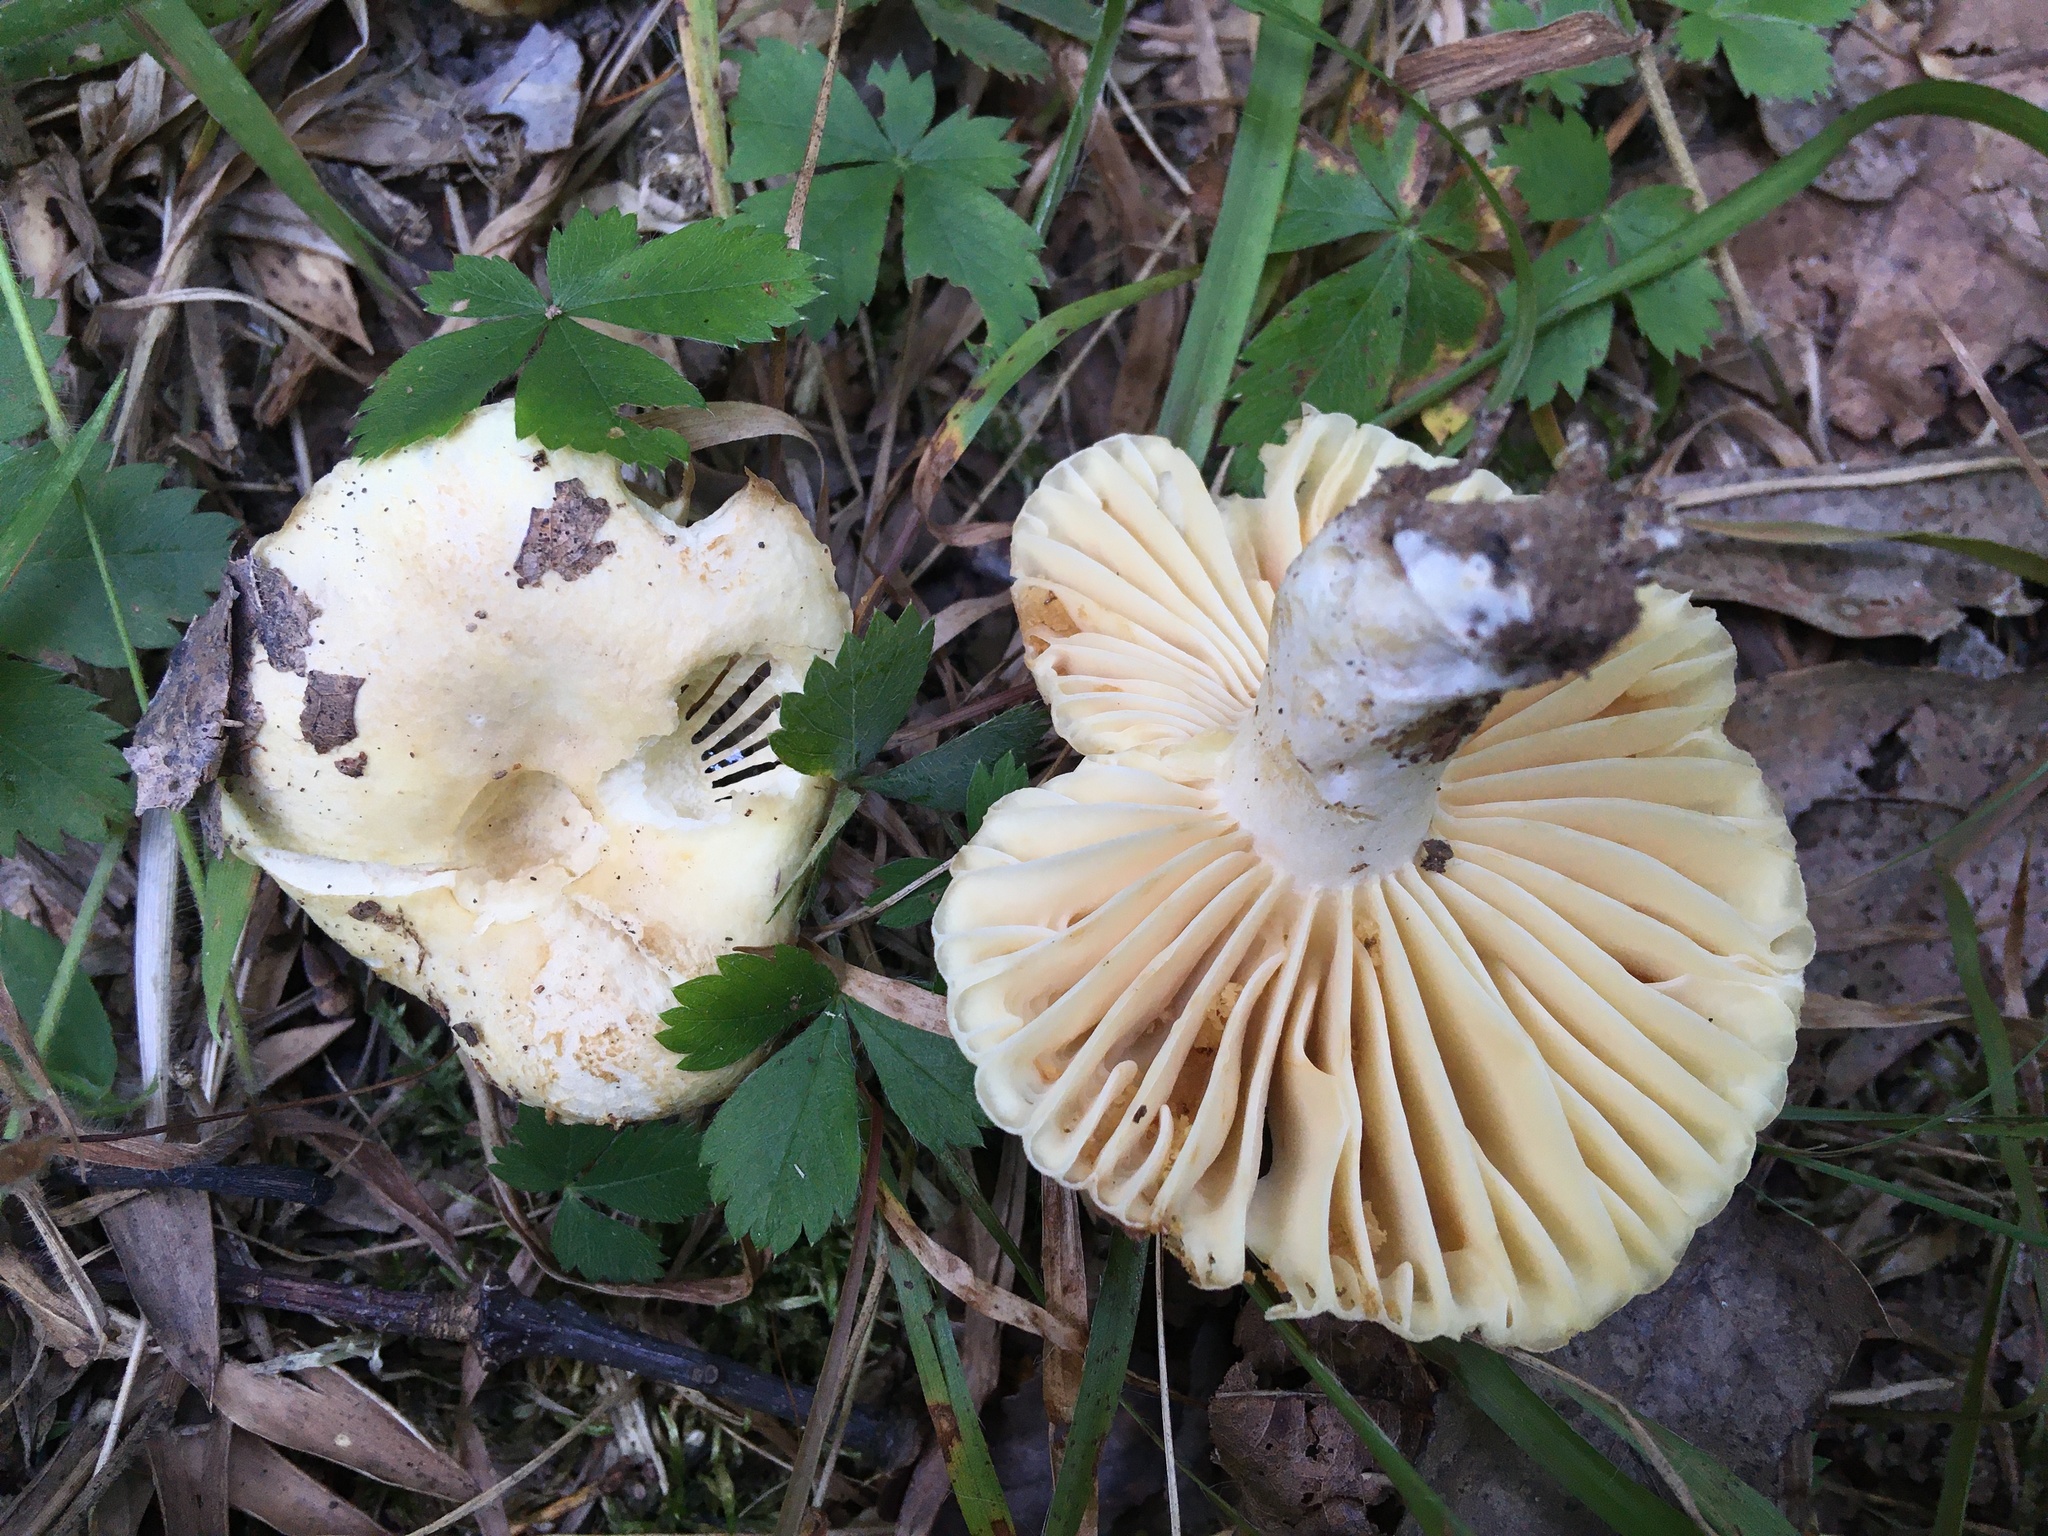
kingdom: Fungi
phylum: Basidiomycota
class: Agaricomycetes
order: Russulales
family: Russulaceae
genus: Russula
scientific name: Russula earlei
